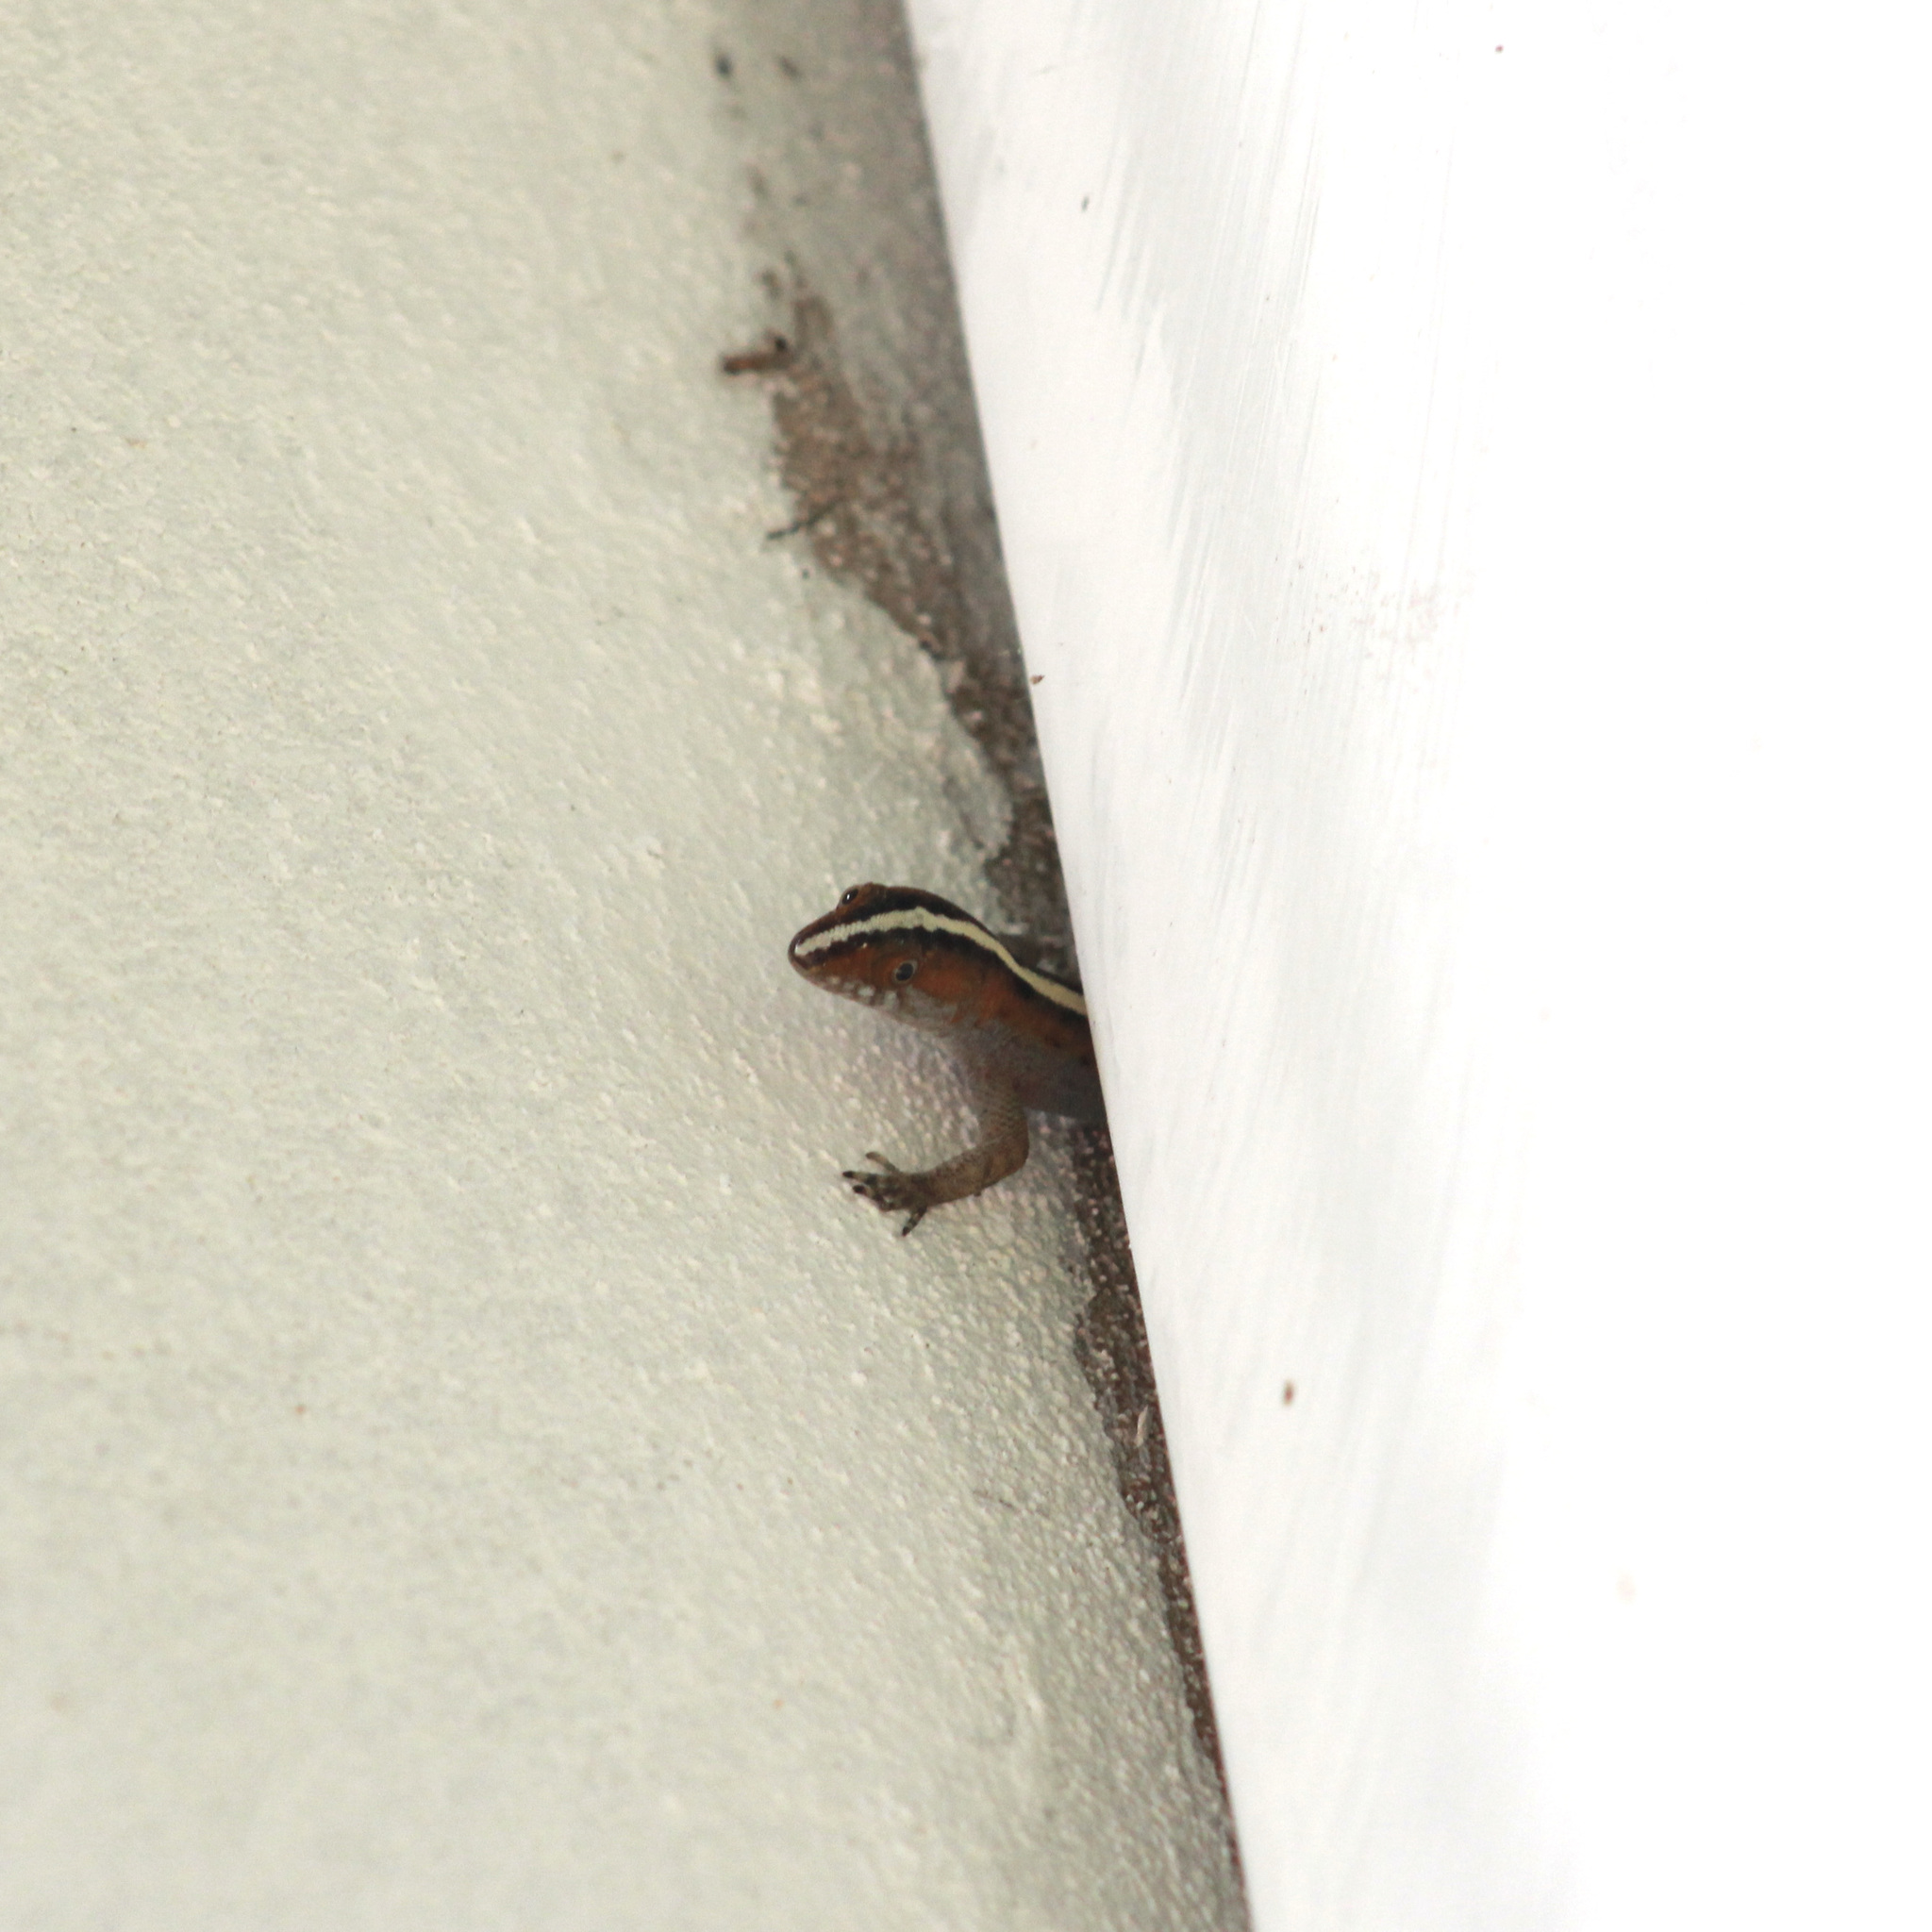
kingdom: Animalia
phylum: Chordata
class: Squamata
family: Sphaerodactylidae
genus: Gonatodes
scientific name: Gonatodes vittatus
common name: Wiegmann's striped gecko
